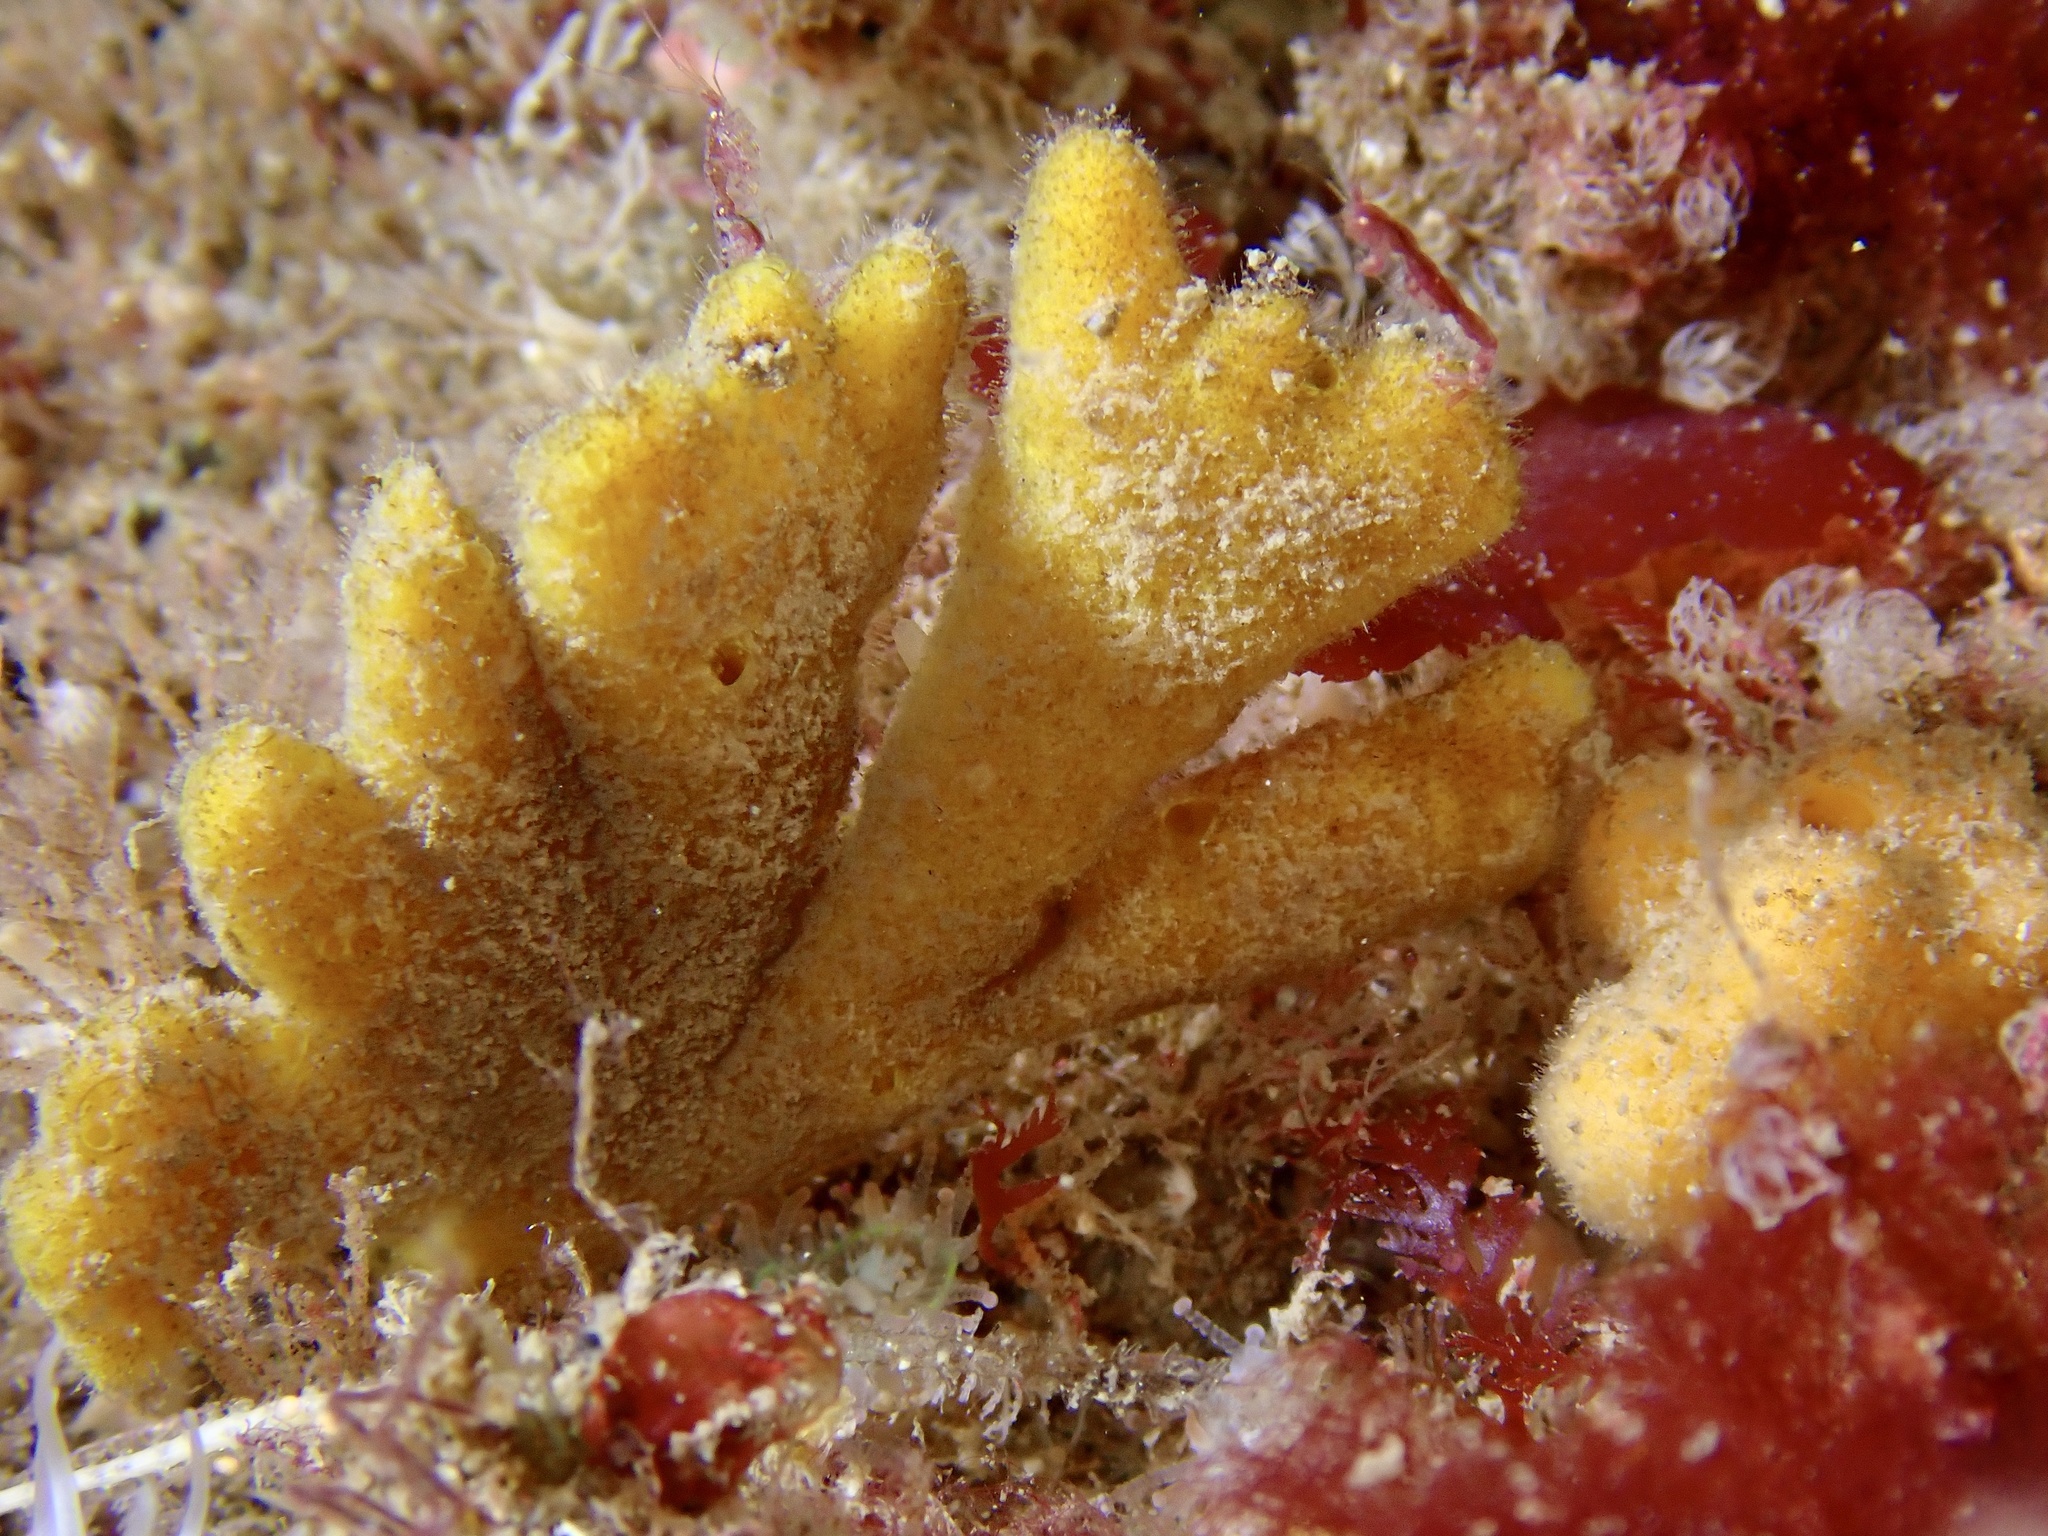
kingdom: Animalia
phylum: Porifera
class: Demospongiae
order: Axinellida
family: Stelligeridae
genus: Stelligera
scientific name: Stelligera stuposa
